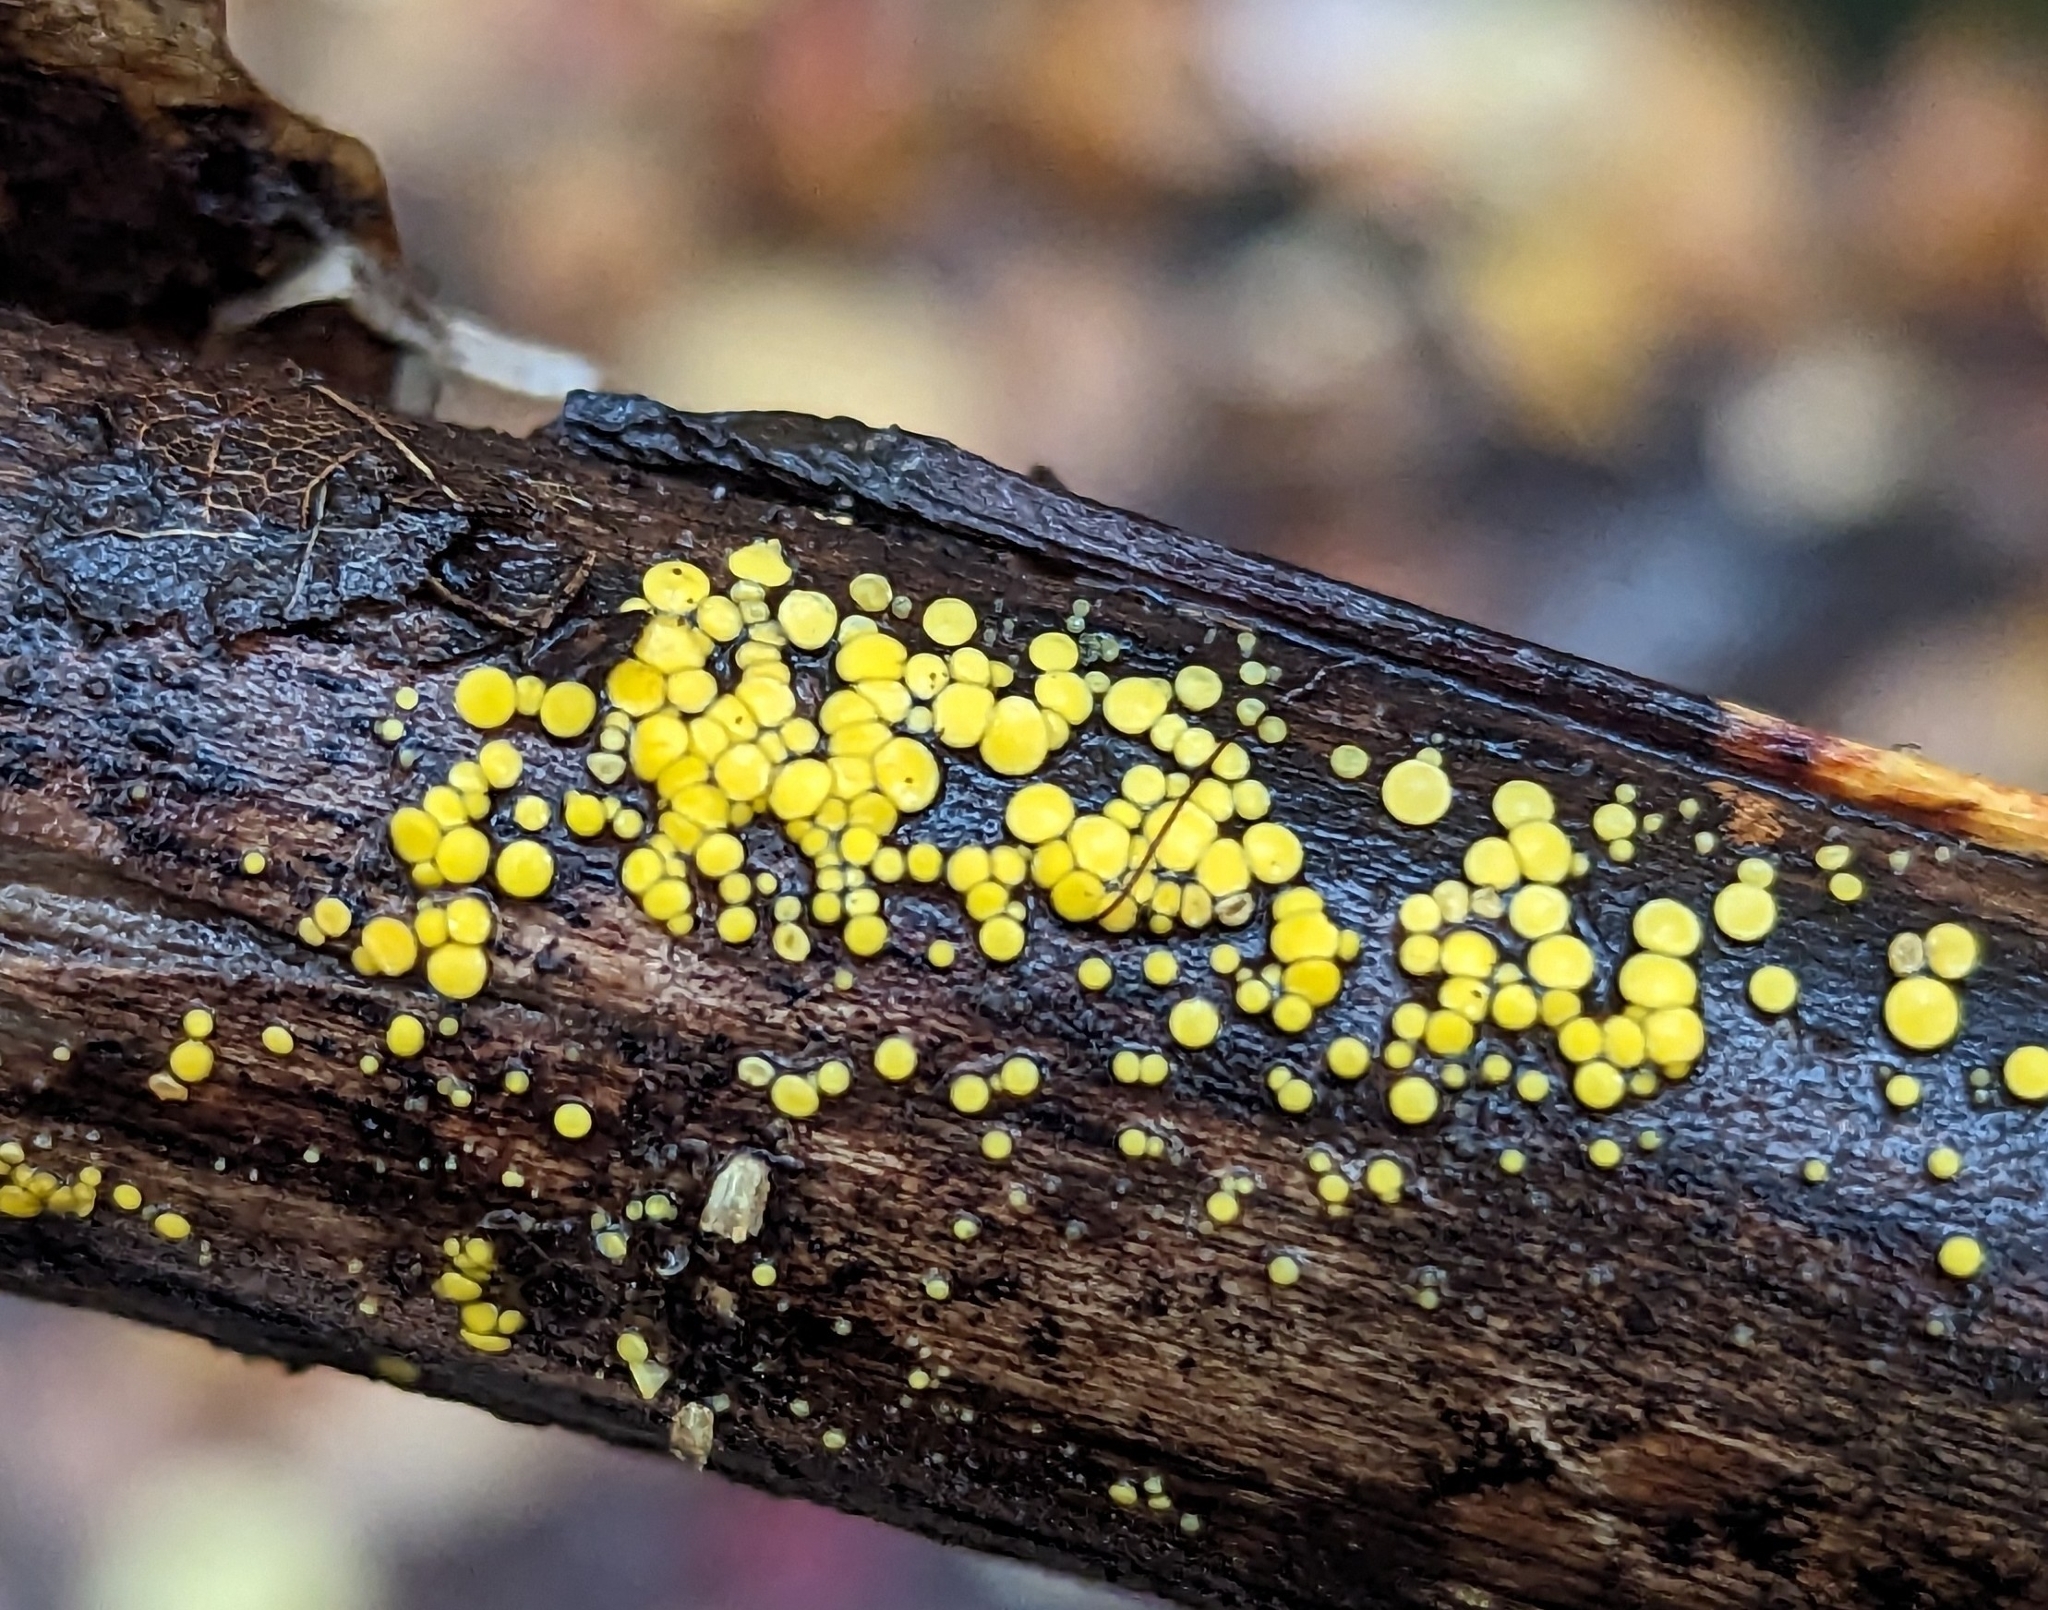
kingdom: Fungi
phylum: Ascomycota
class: Leotiomycetes
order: Helotiales
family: Pezizellaceae
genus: Calycina
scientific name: Calycina citrina
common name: Yellow fairy cups
